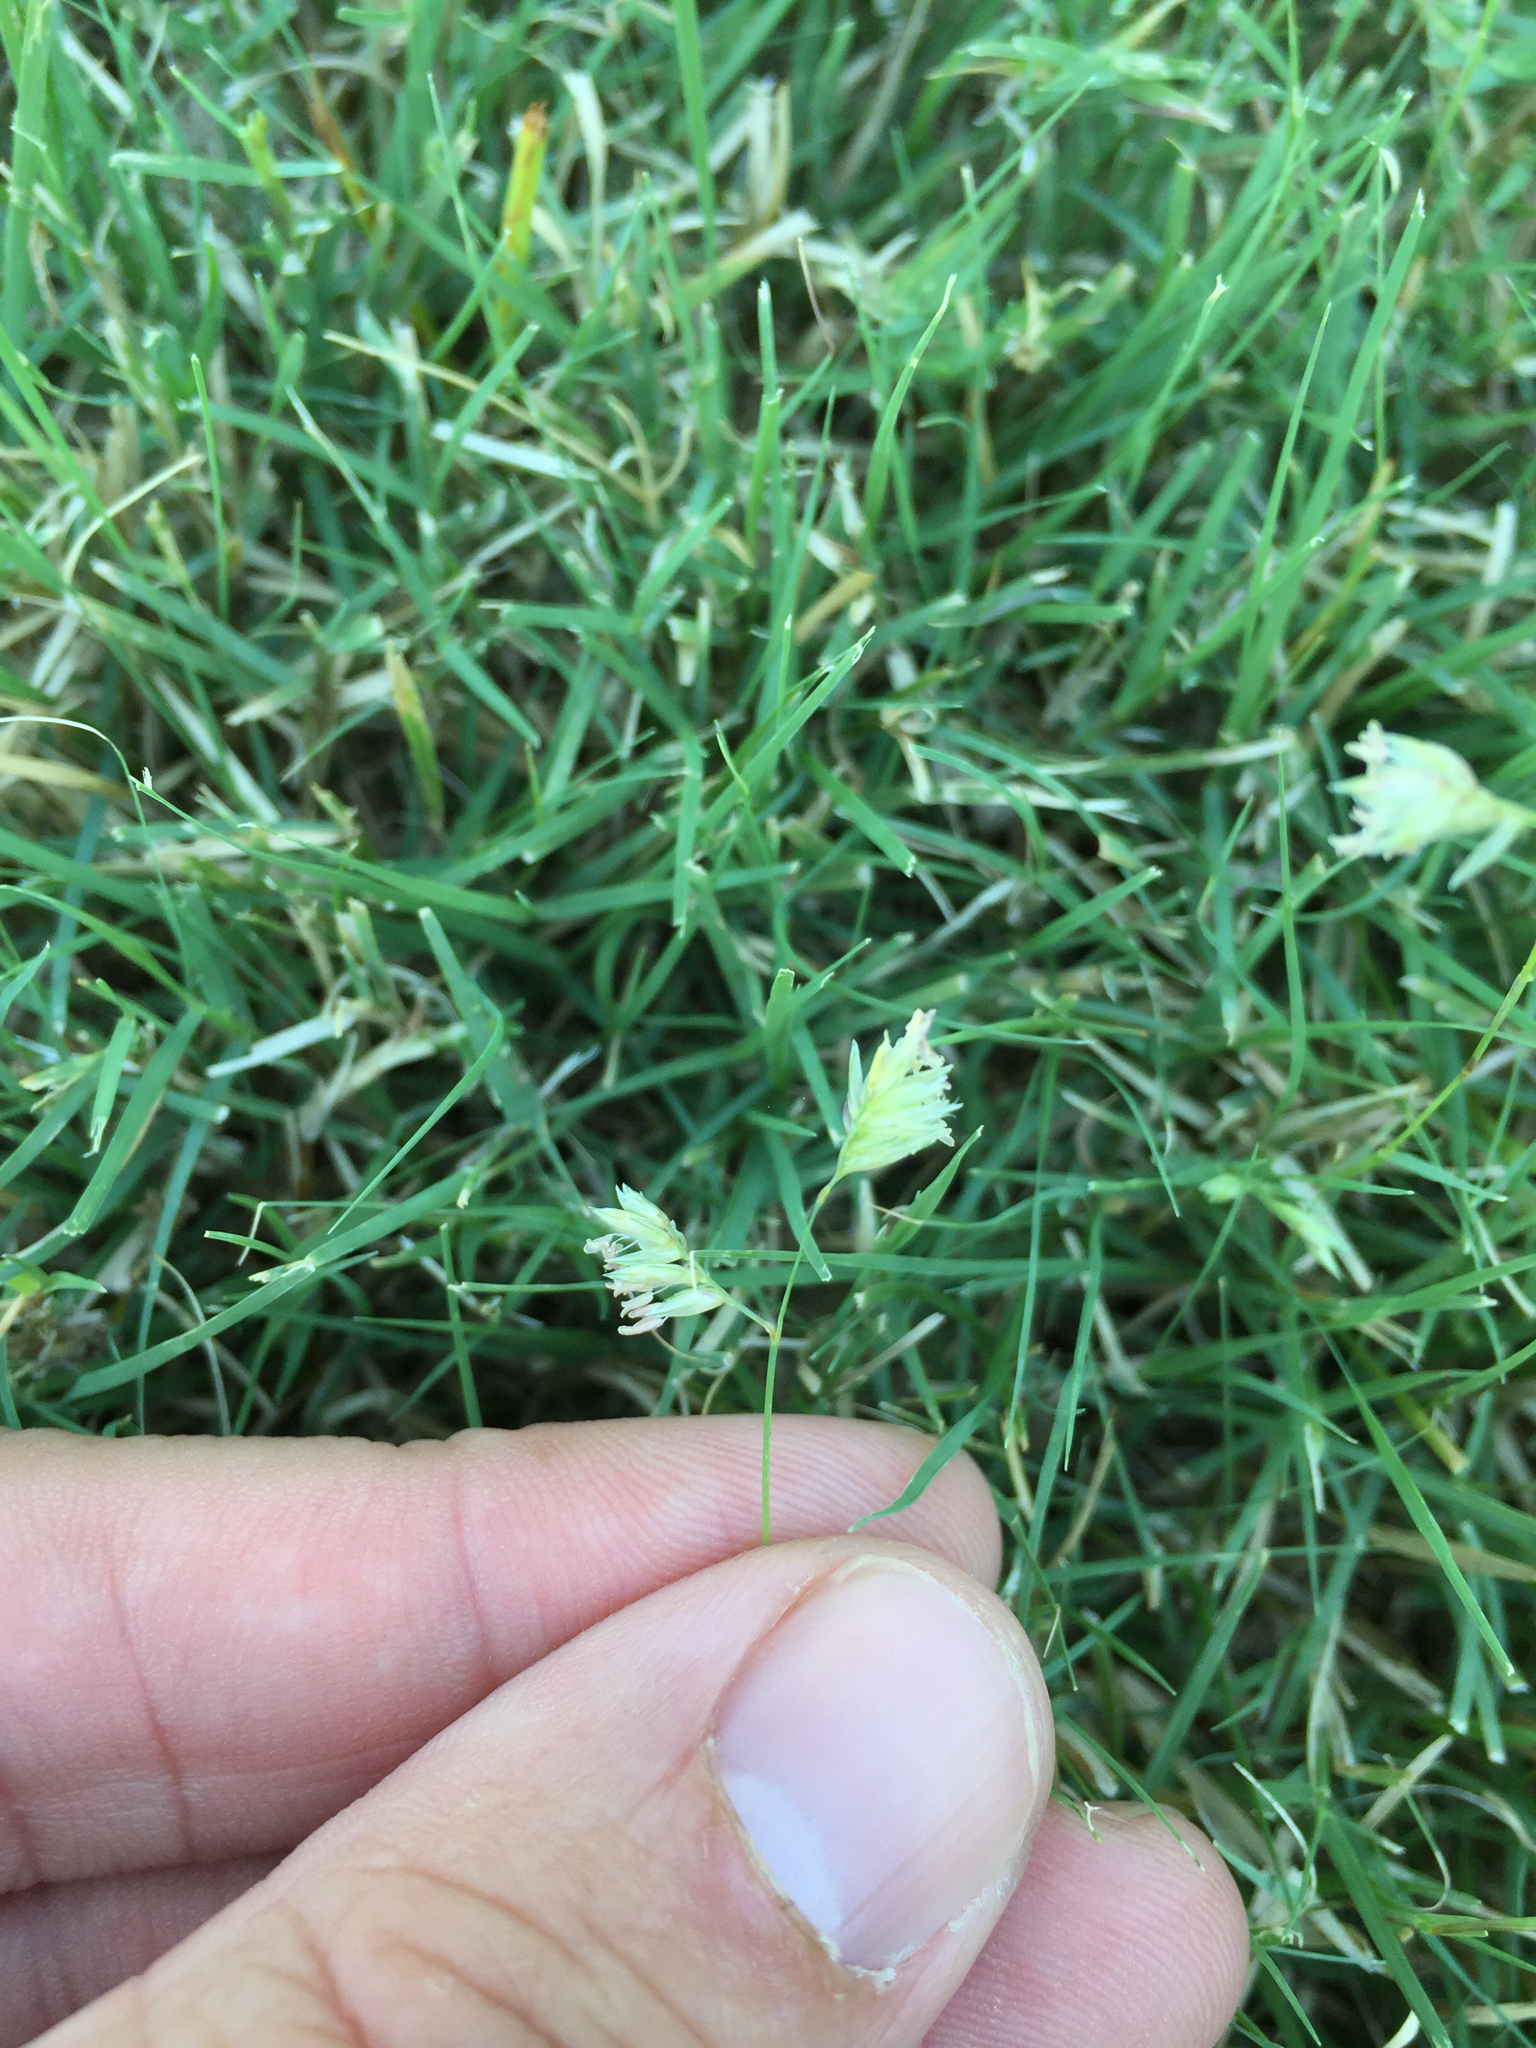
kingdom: Plantae
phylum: Tracheophyta
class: Liliopsida
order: Poales
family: Poaceae
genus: Bouteloua
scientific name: Bouteloua dactyloides
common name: Buffalo grass
